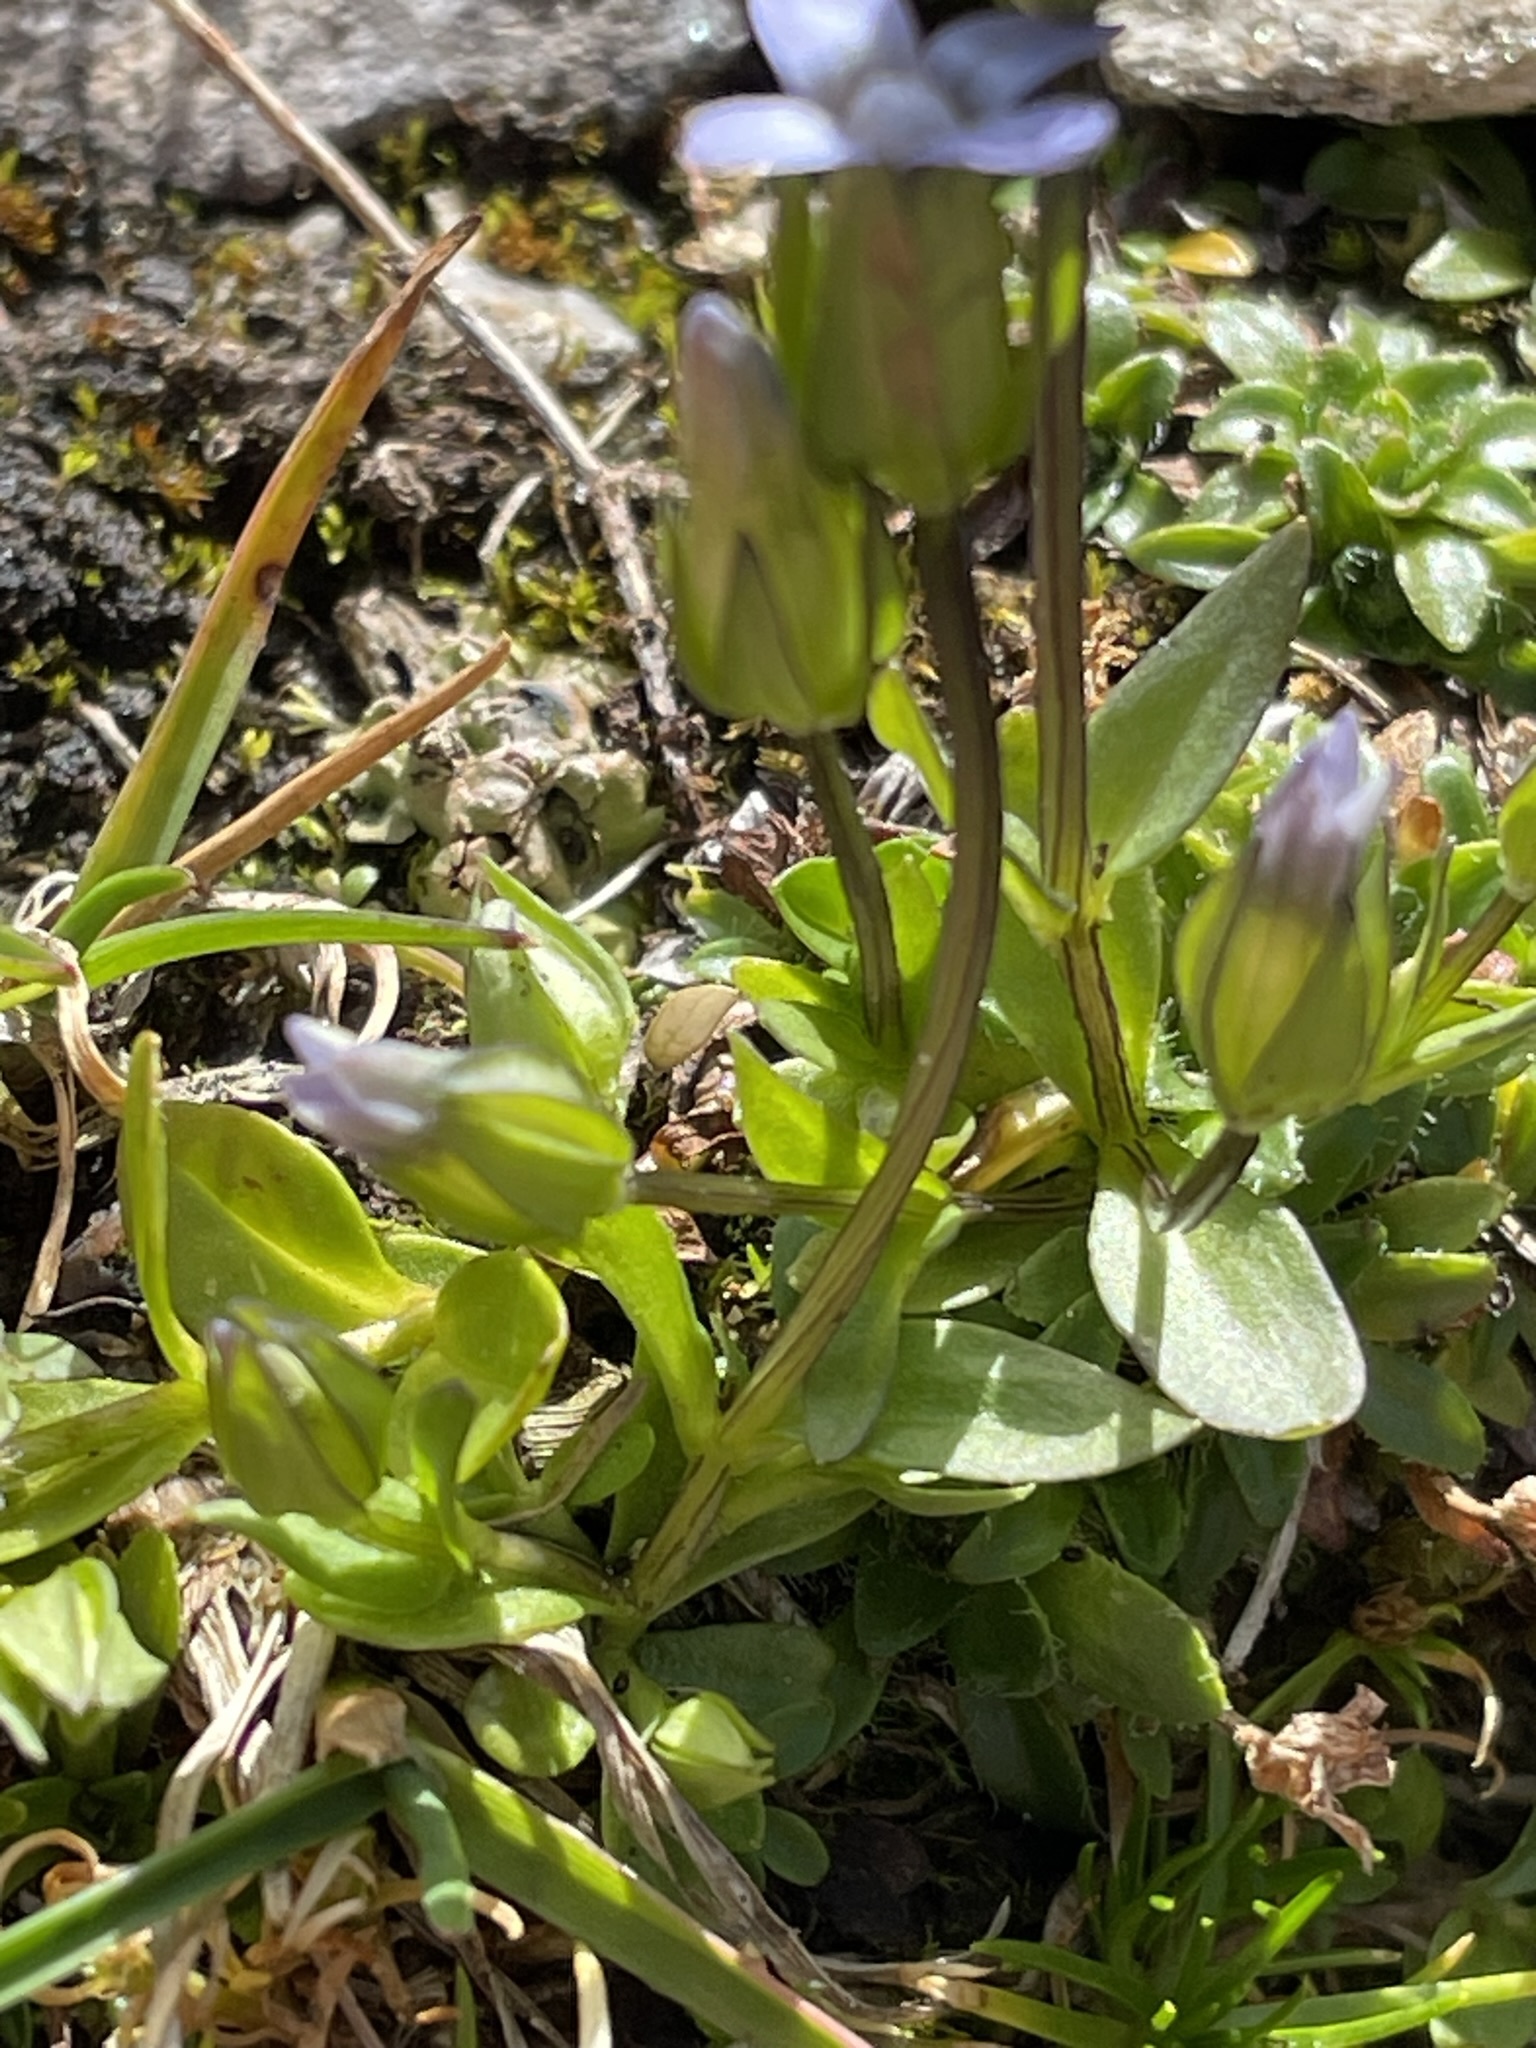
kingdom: Plantae
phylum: Tracheophyta
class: Magnoliopsida
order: Gentianales
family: Gentianaceae
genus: Comastoma
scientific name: Comastoma tenellum
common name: Dane's dwarf gentian
